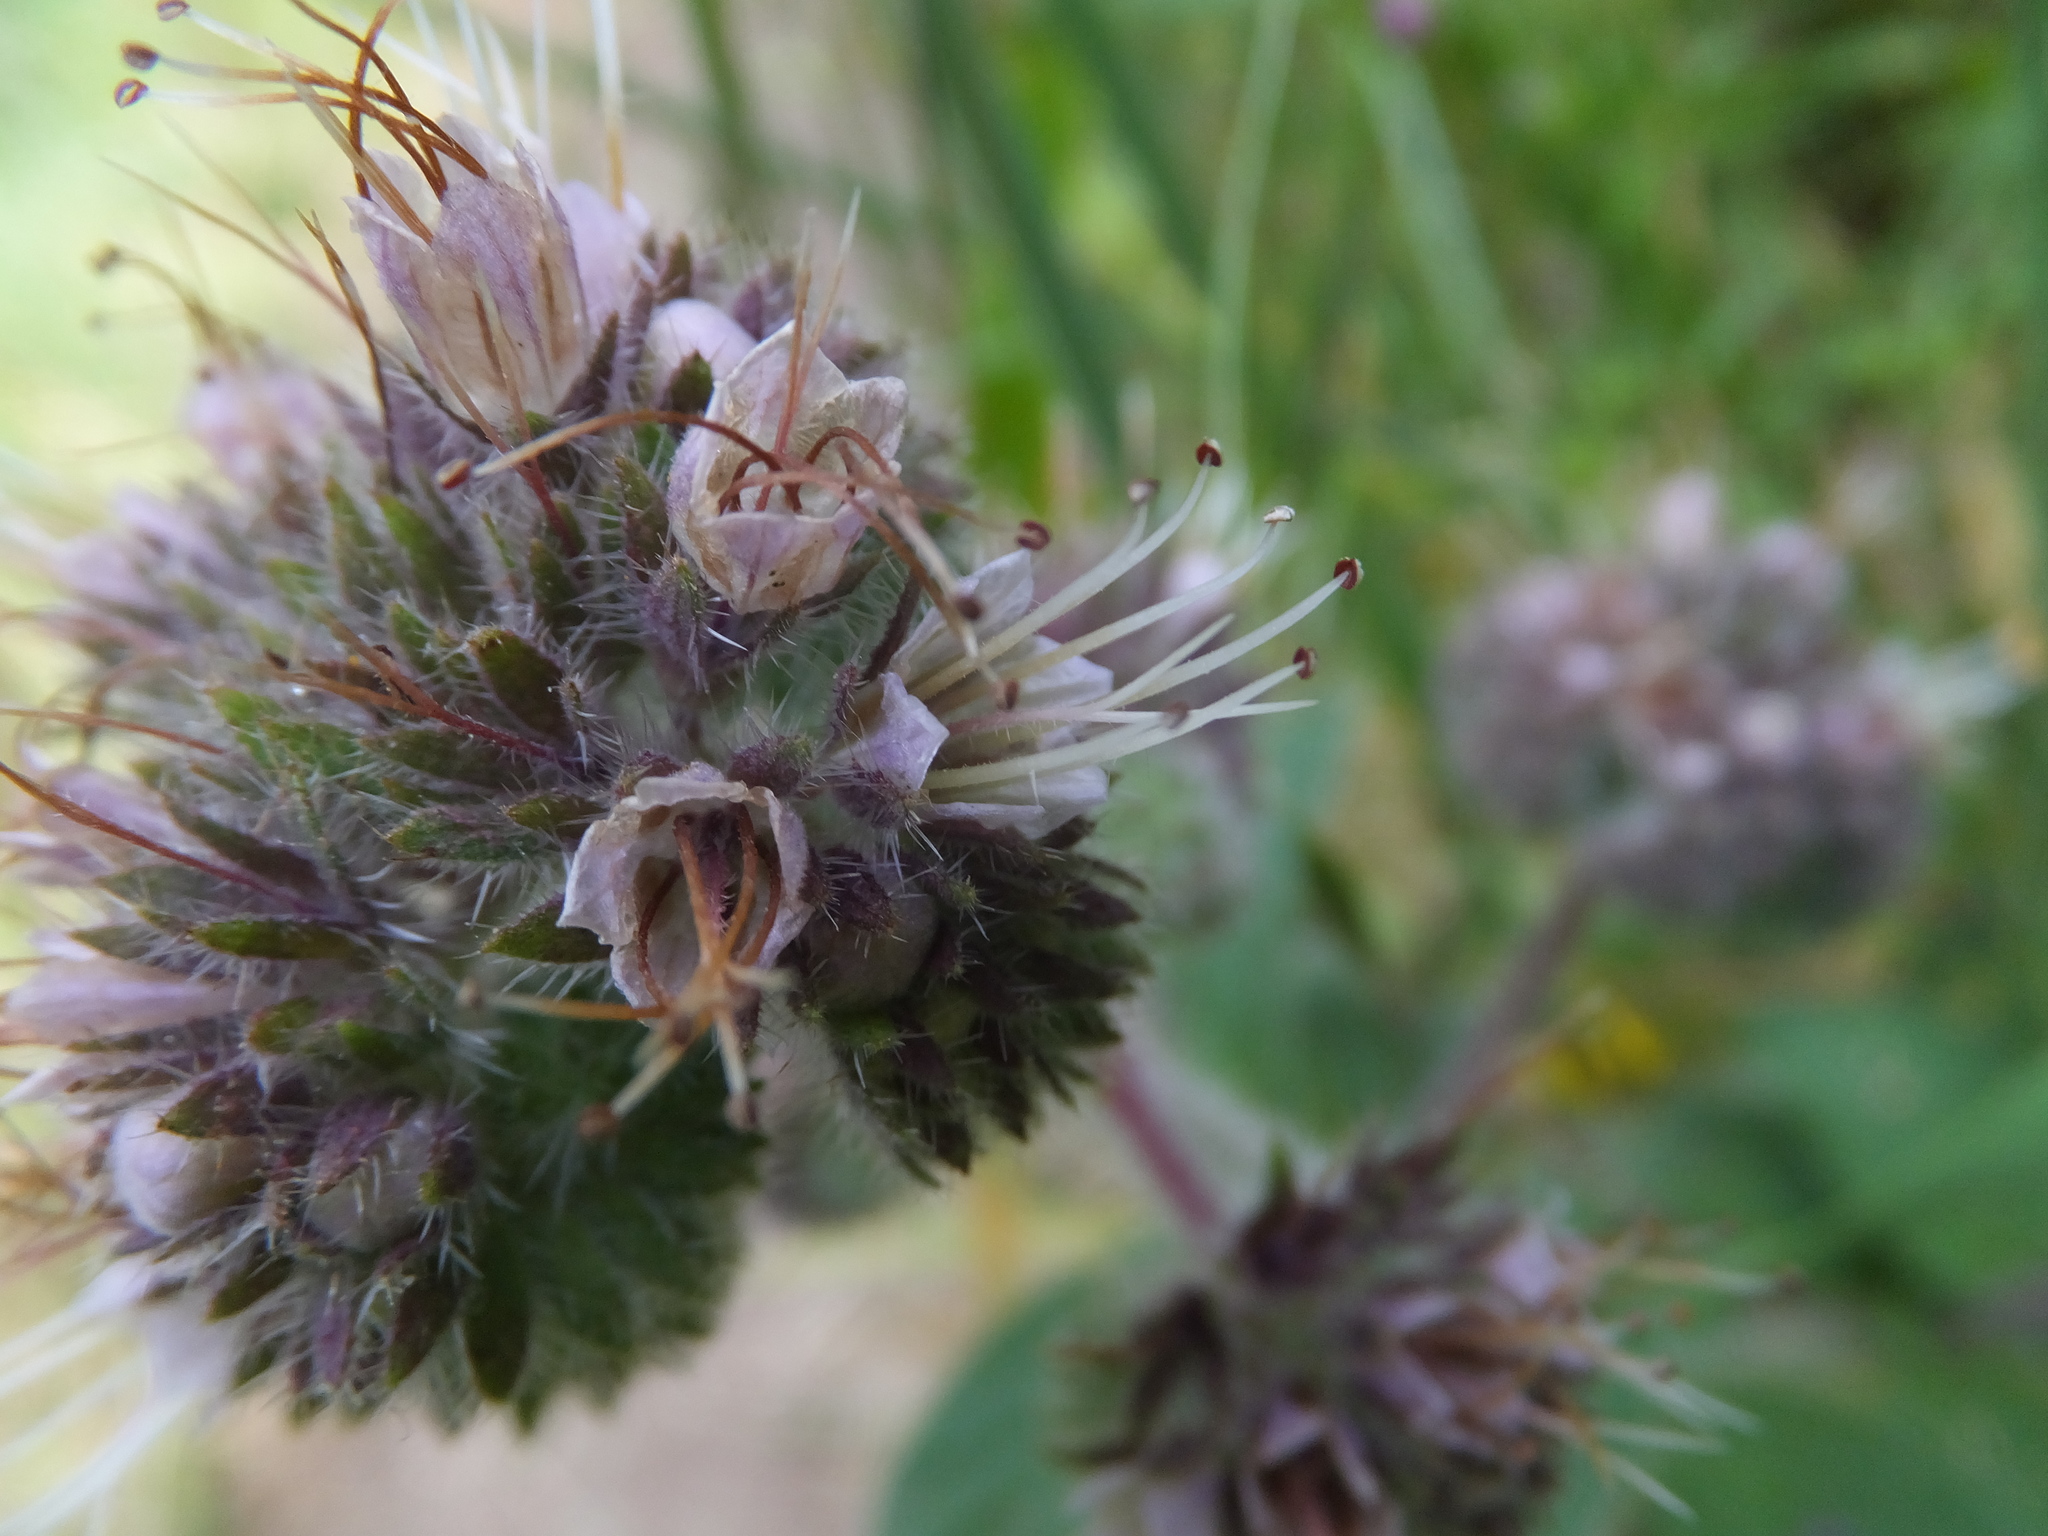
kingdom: Plantae
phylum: Tracheophyta
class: Magnoliopsida
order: Boraginales
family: Hydrophyllaceae
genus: Phacelia
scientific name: Phacelia californica
